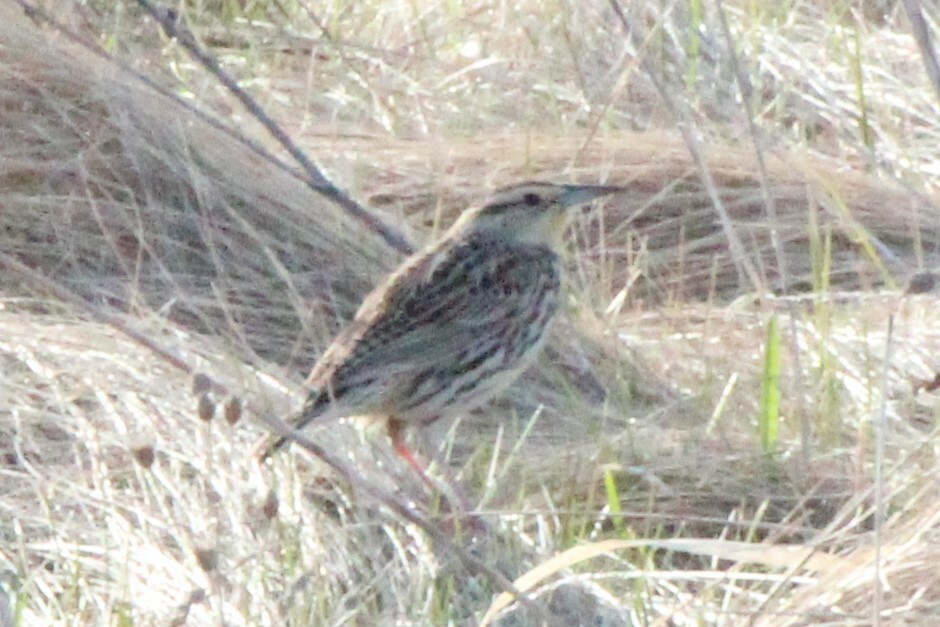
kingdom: Animalia
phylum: Chordata
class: Aves
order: Passeriformes
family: Icteridae
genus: Sturnella
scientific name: Sturnella magna
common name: Eastern meadowlark
